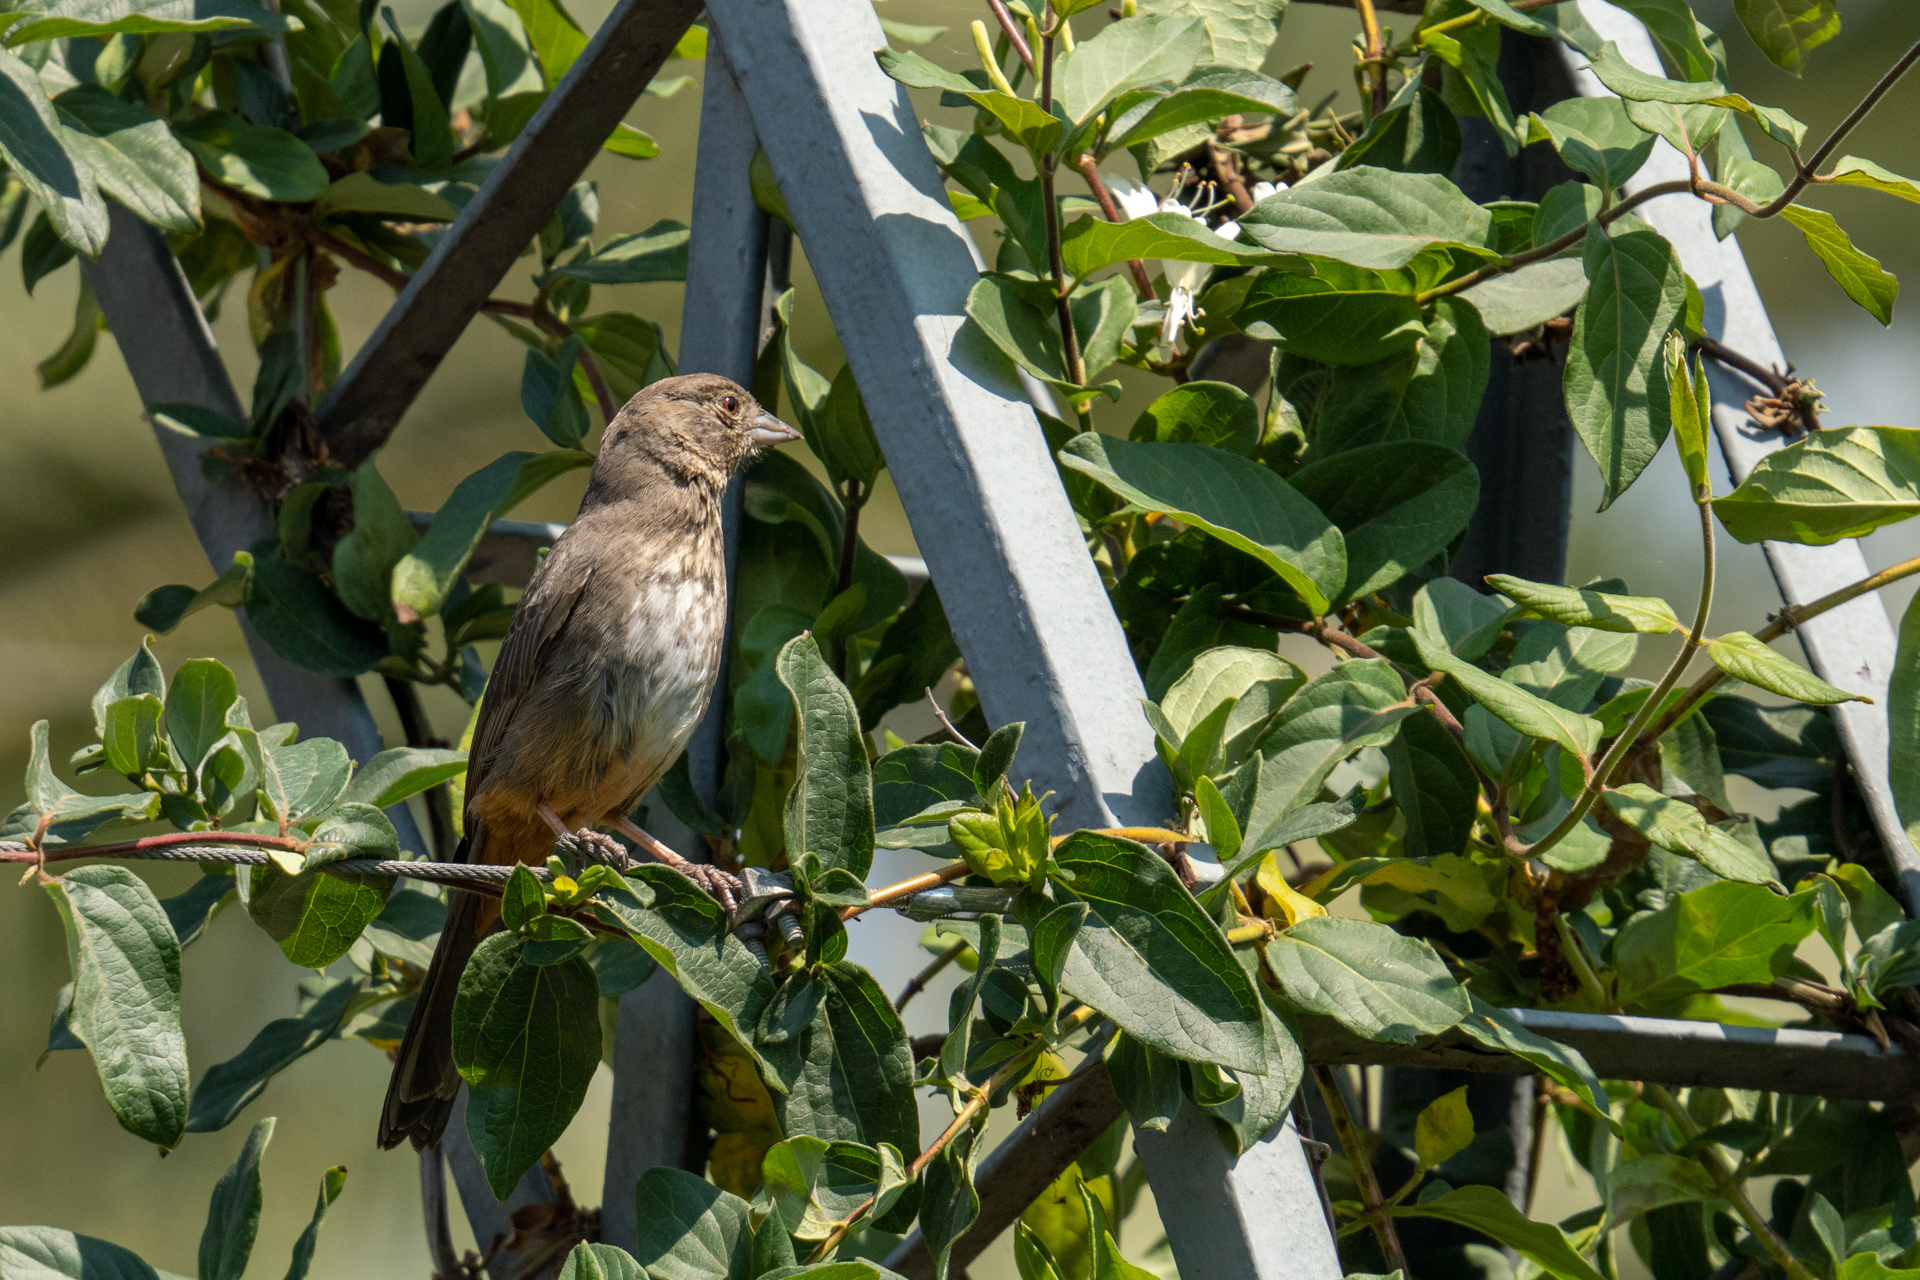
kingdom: Animalia
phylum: Chordata
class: Aves
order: Passeriformes
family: Passerellidae
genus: Melozone
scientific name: Melozone fusca
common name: Canyon towhee
